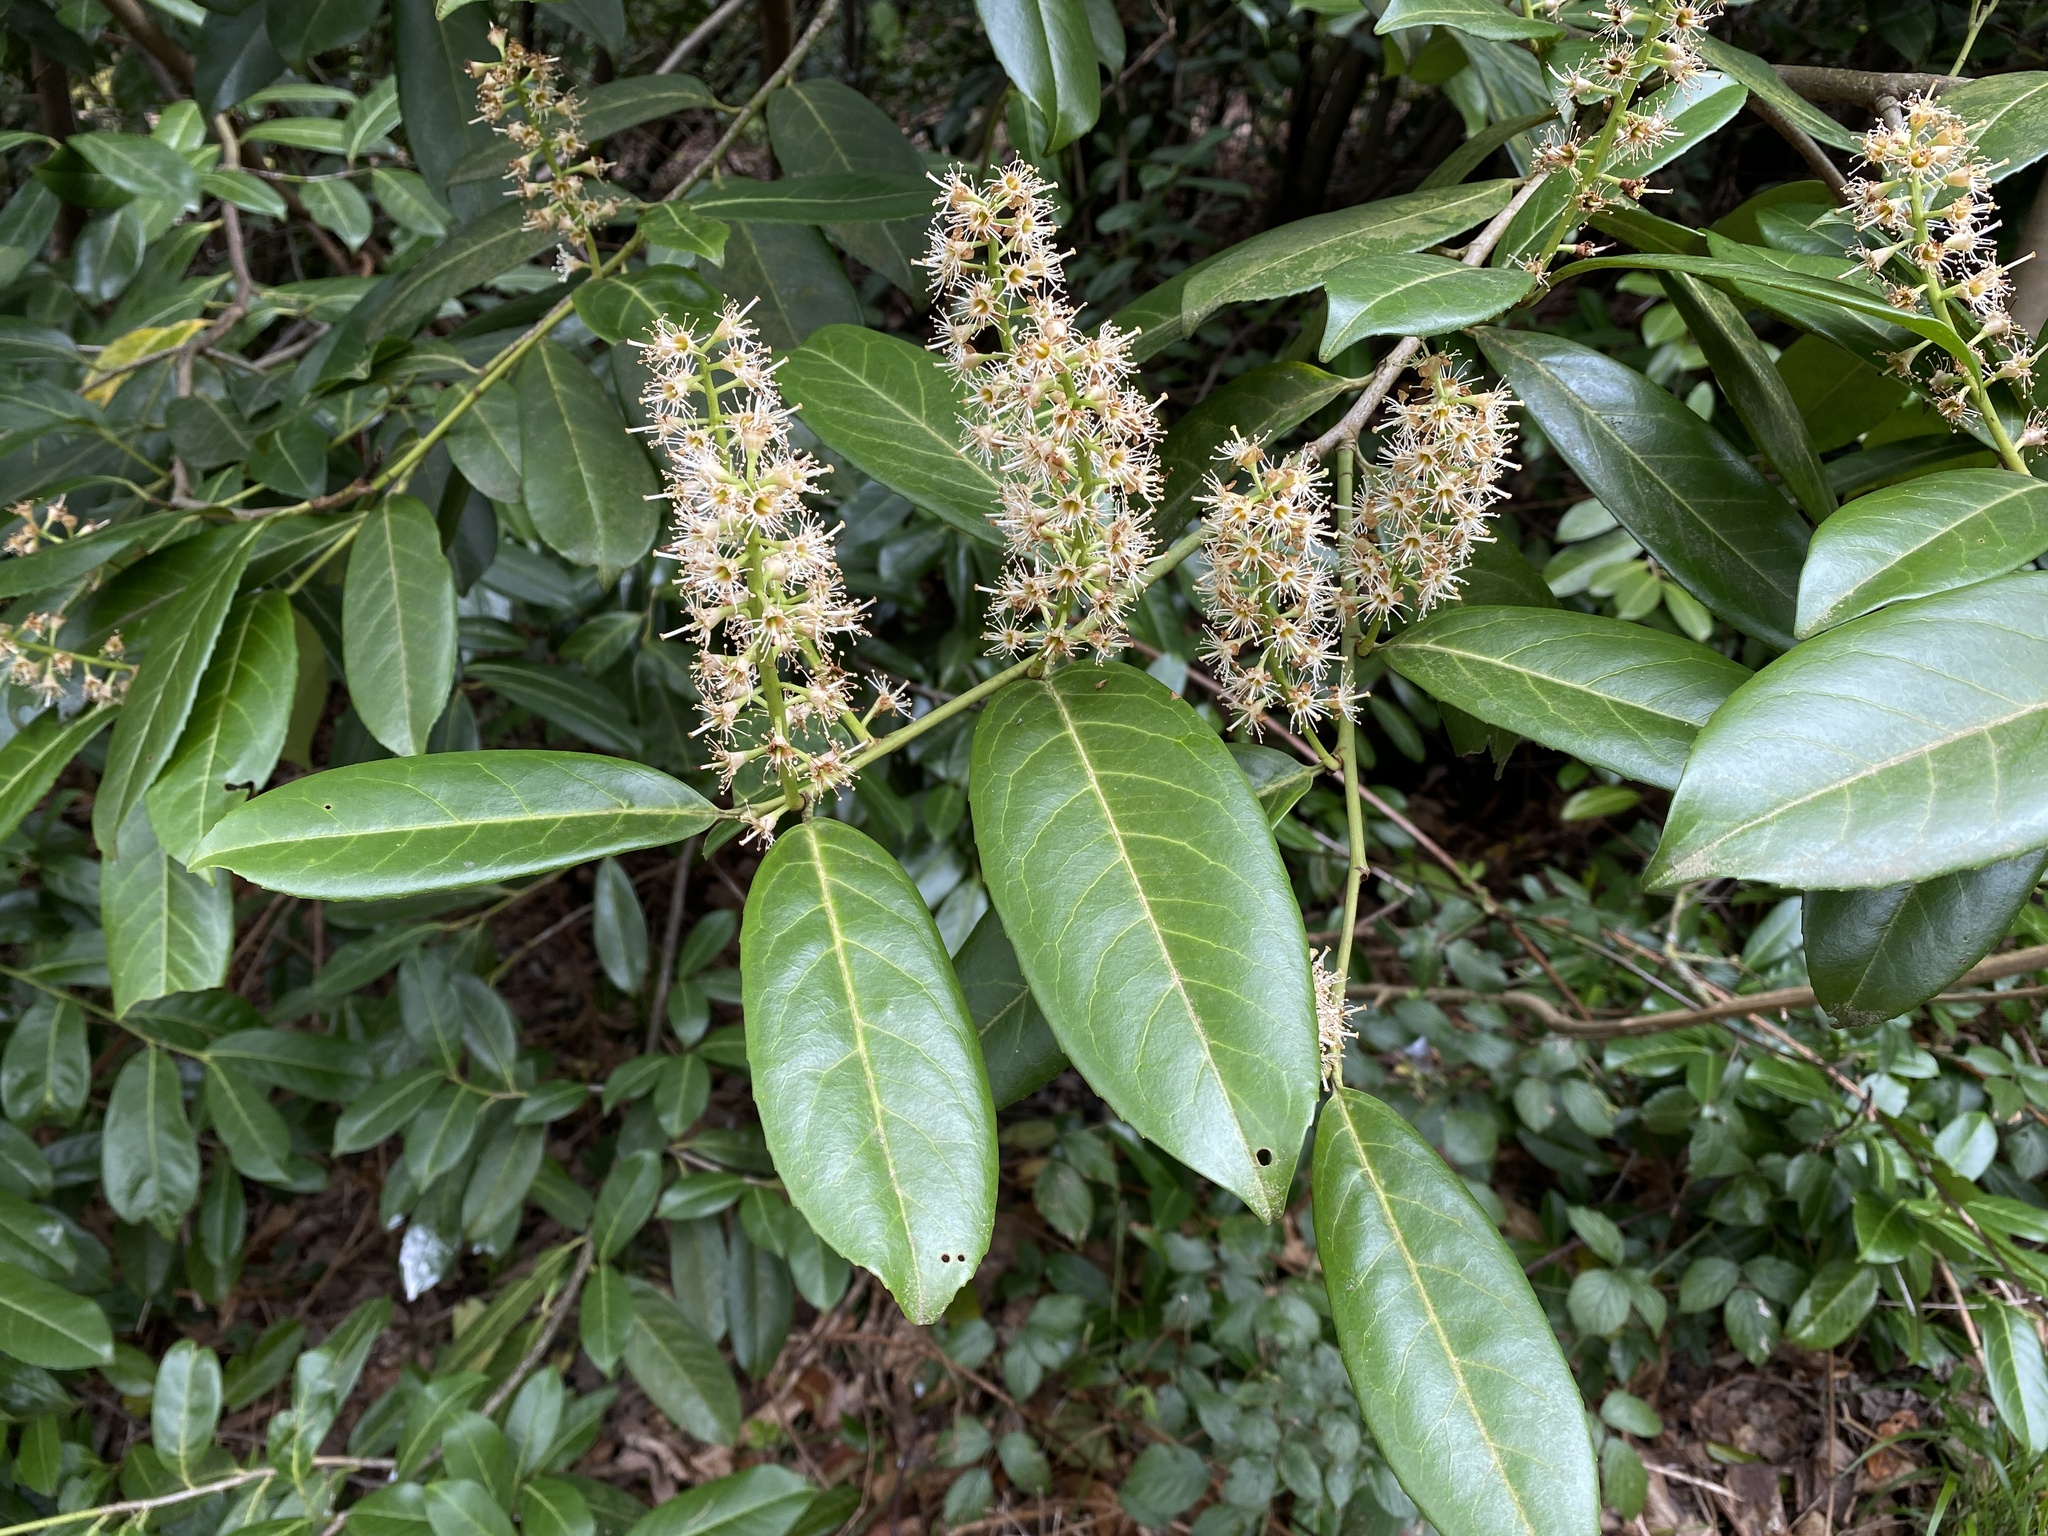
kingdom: Plantae
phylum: Tracheophyta
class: Magnoliopsida
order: Rosales
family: Rosaceae
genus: Prunus
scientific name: Prunus laurocerasus
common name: Cherry laurel
